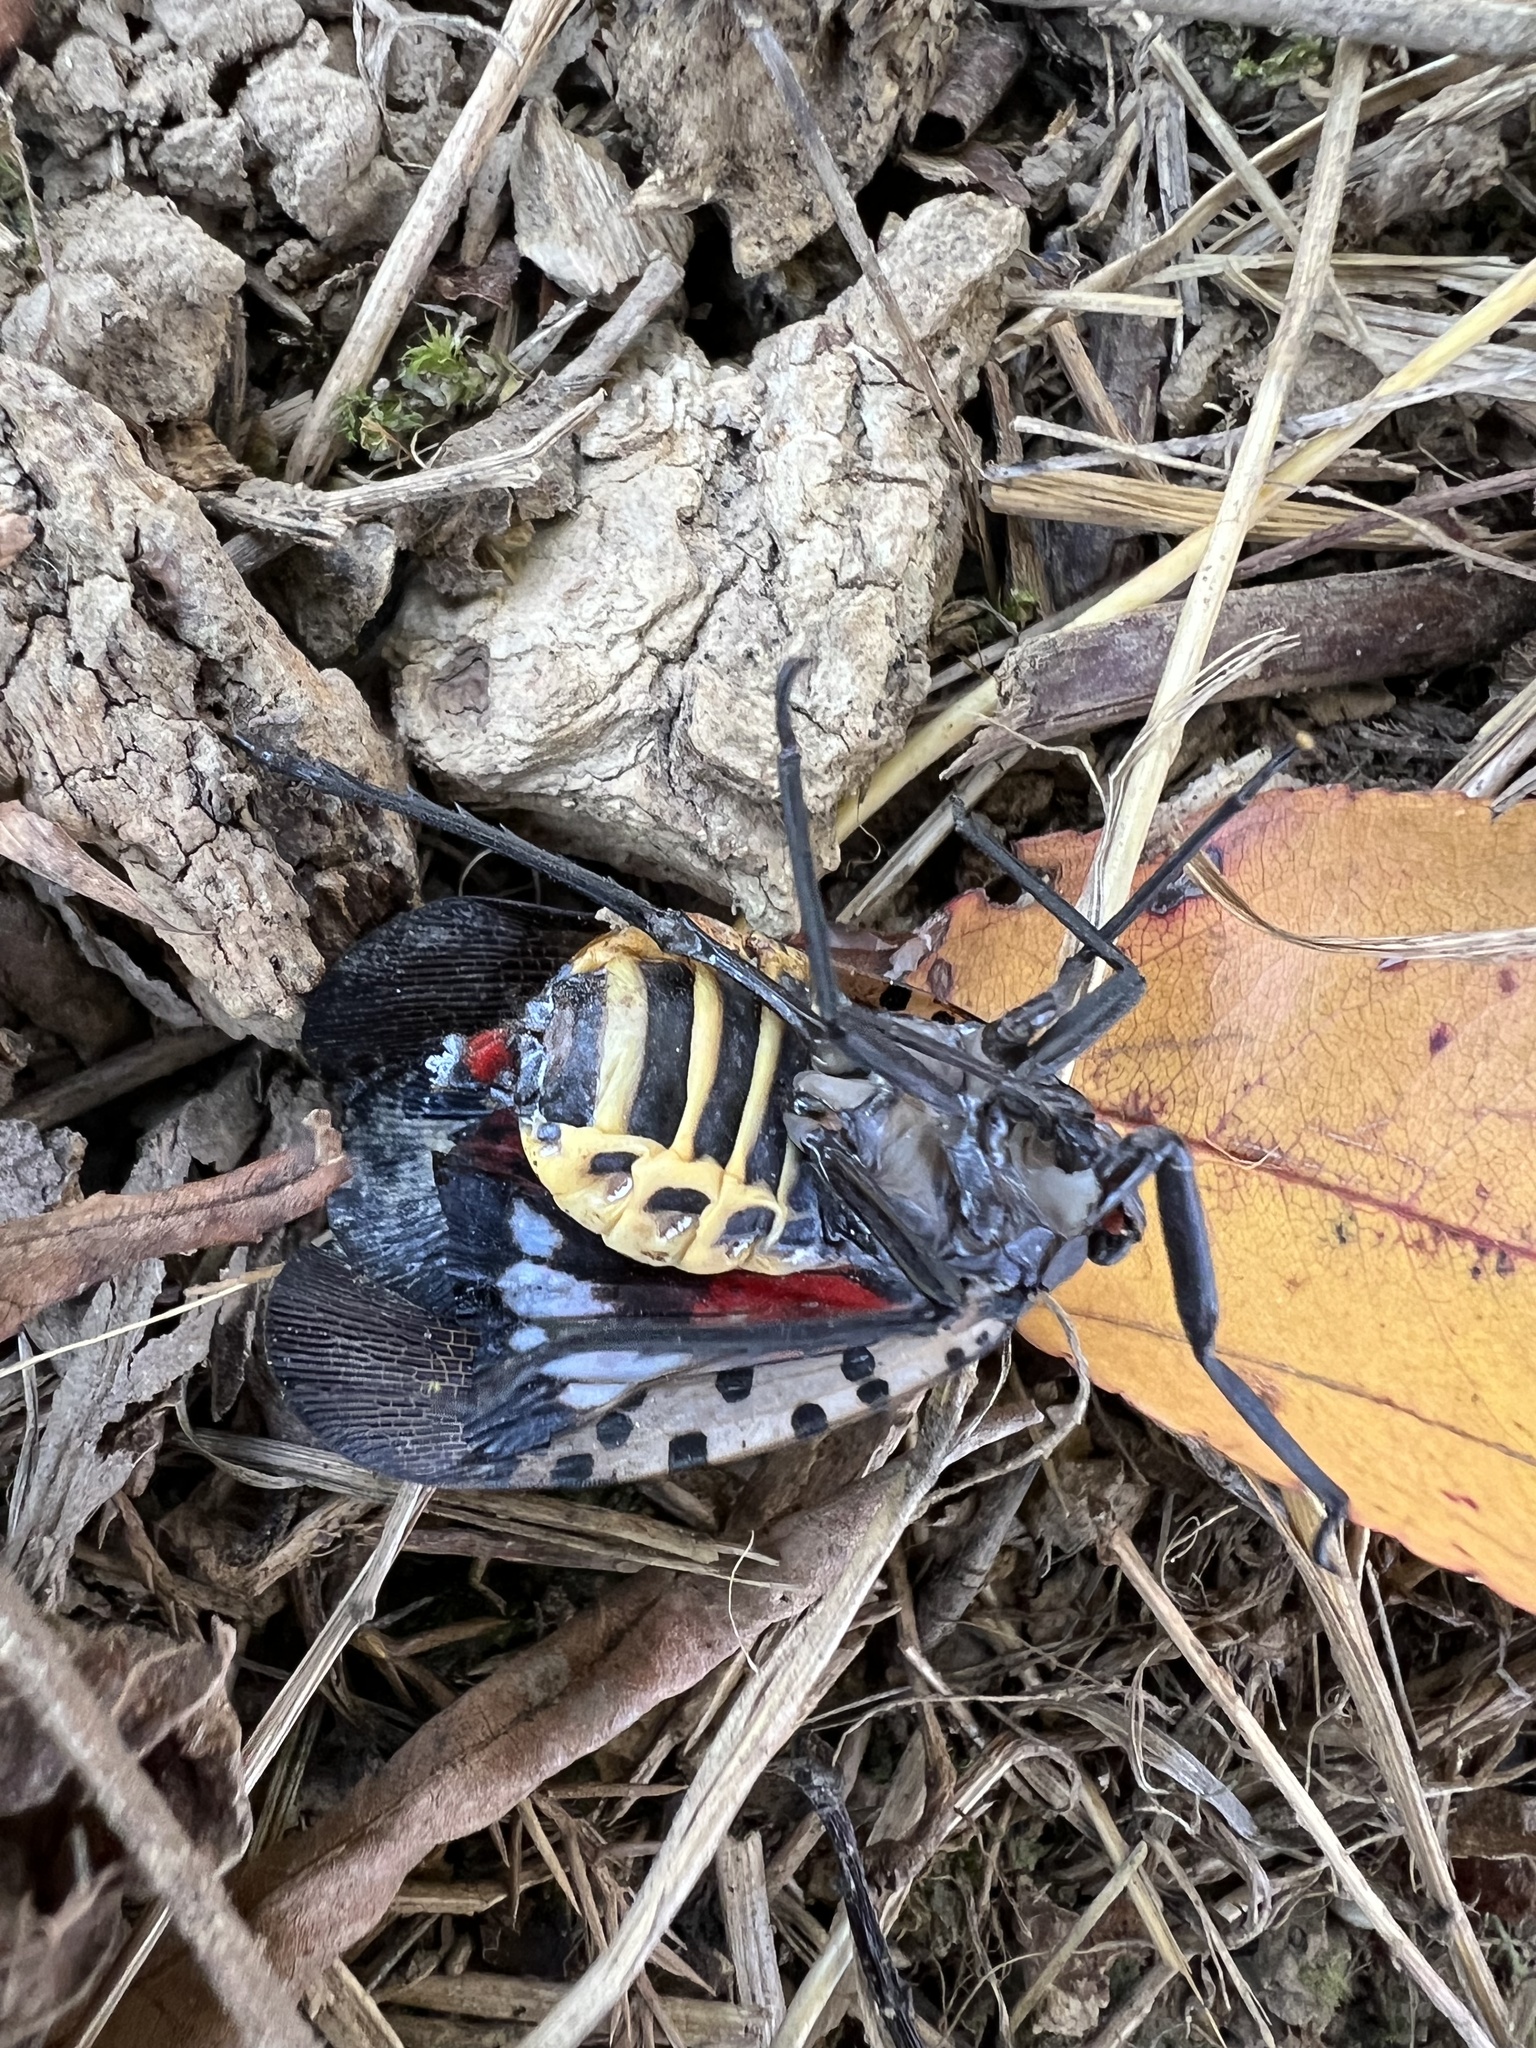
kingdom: Animalia
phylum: Arthropoda
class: Insecta
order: Hemiptera
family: Fulgoridae
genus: Lycorma
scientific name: Lycorma delicatula
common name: Spotted lanternfly
